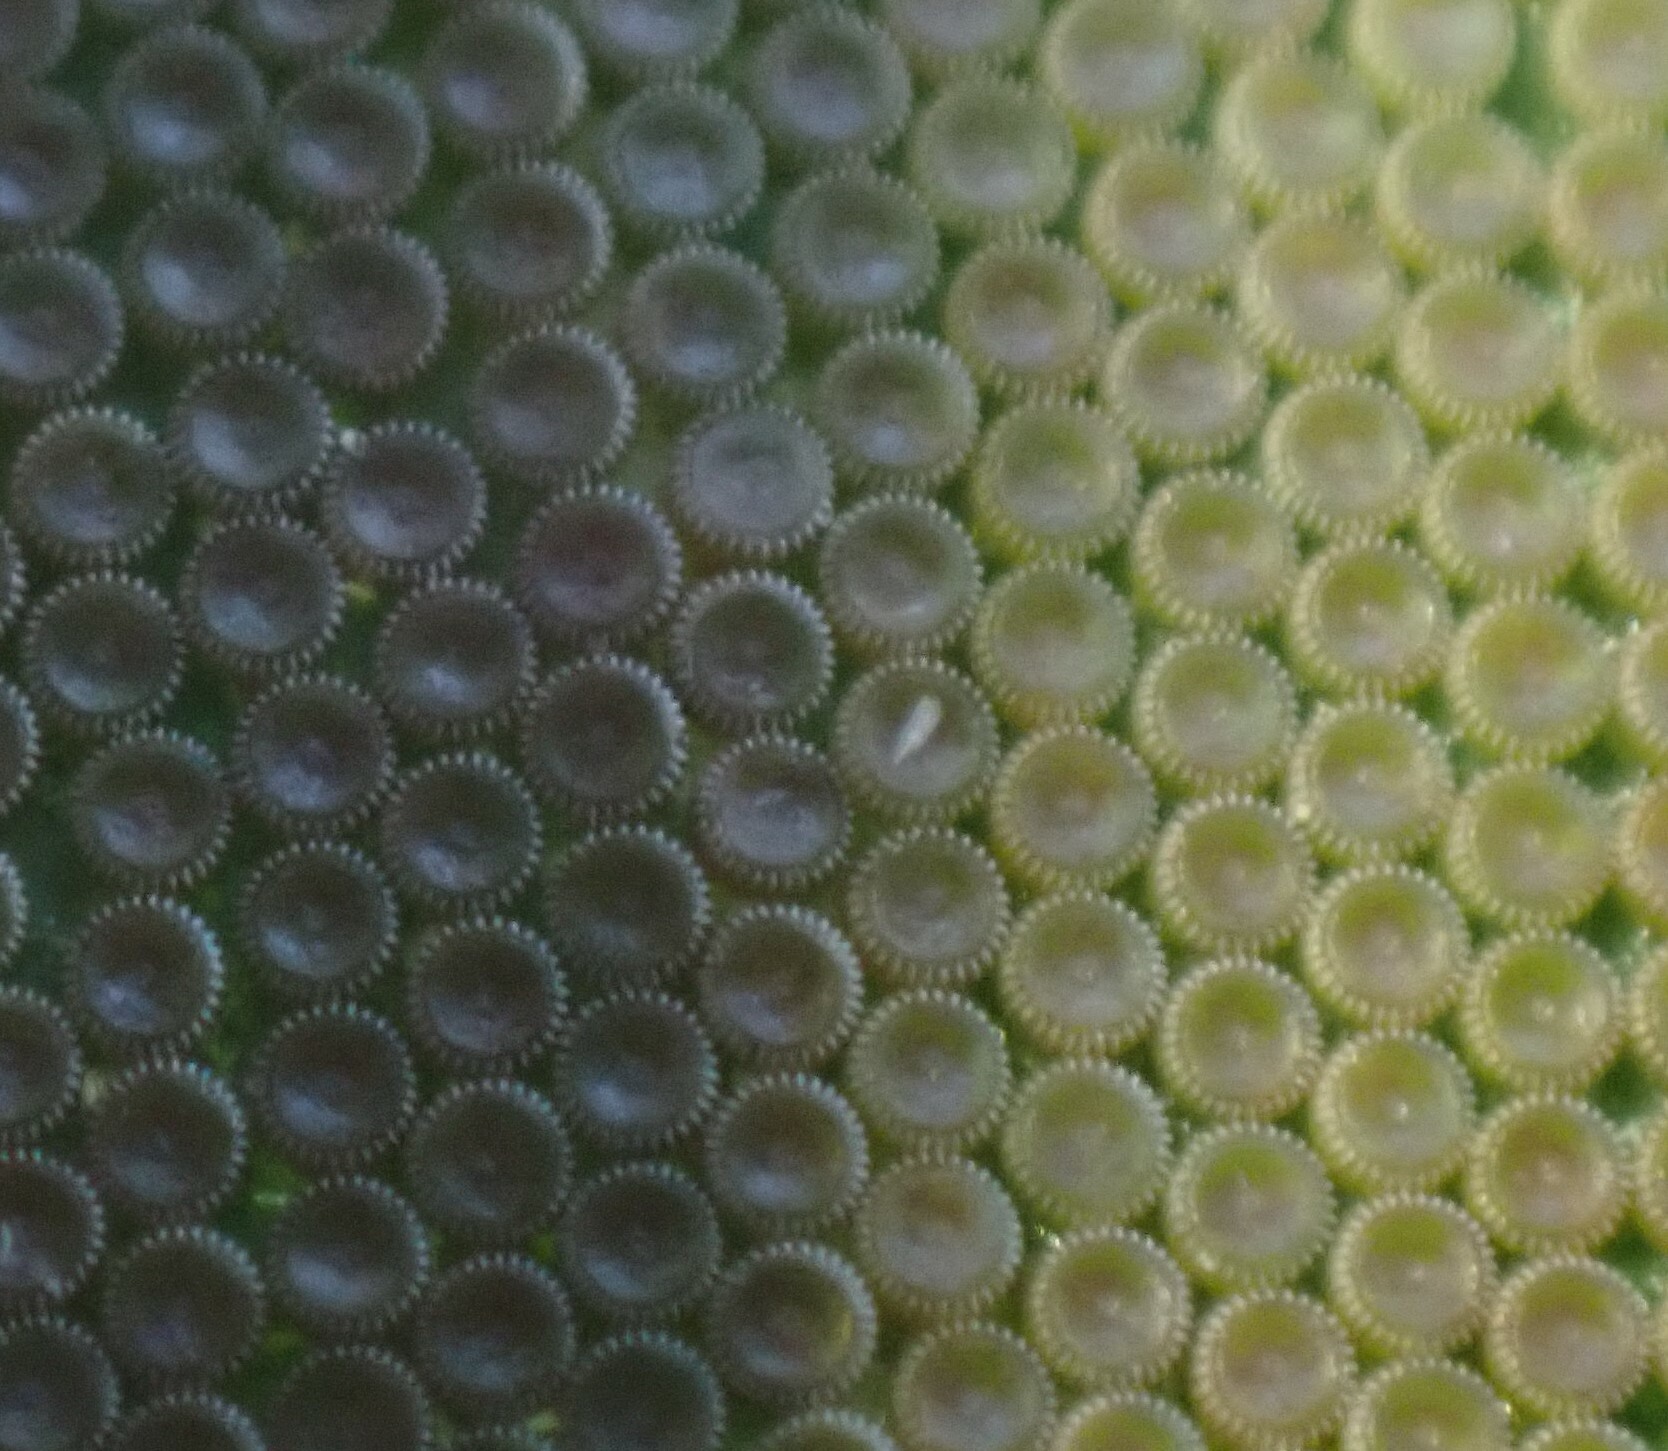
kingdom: Animalia
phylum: Arthropoda
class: Insecta
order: Lepidoptera
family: Nolidae
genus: Uraba
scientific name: Uraba lugens
